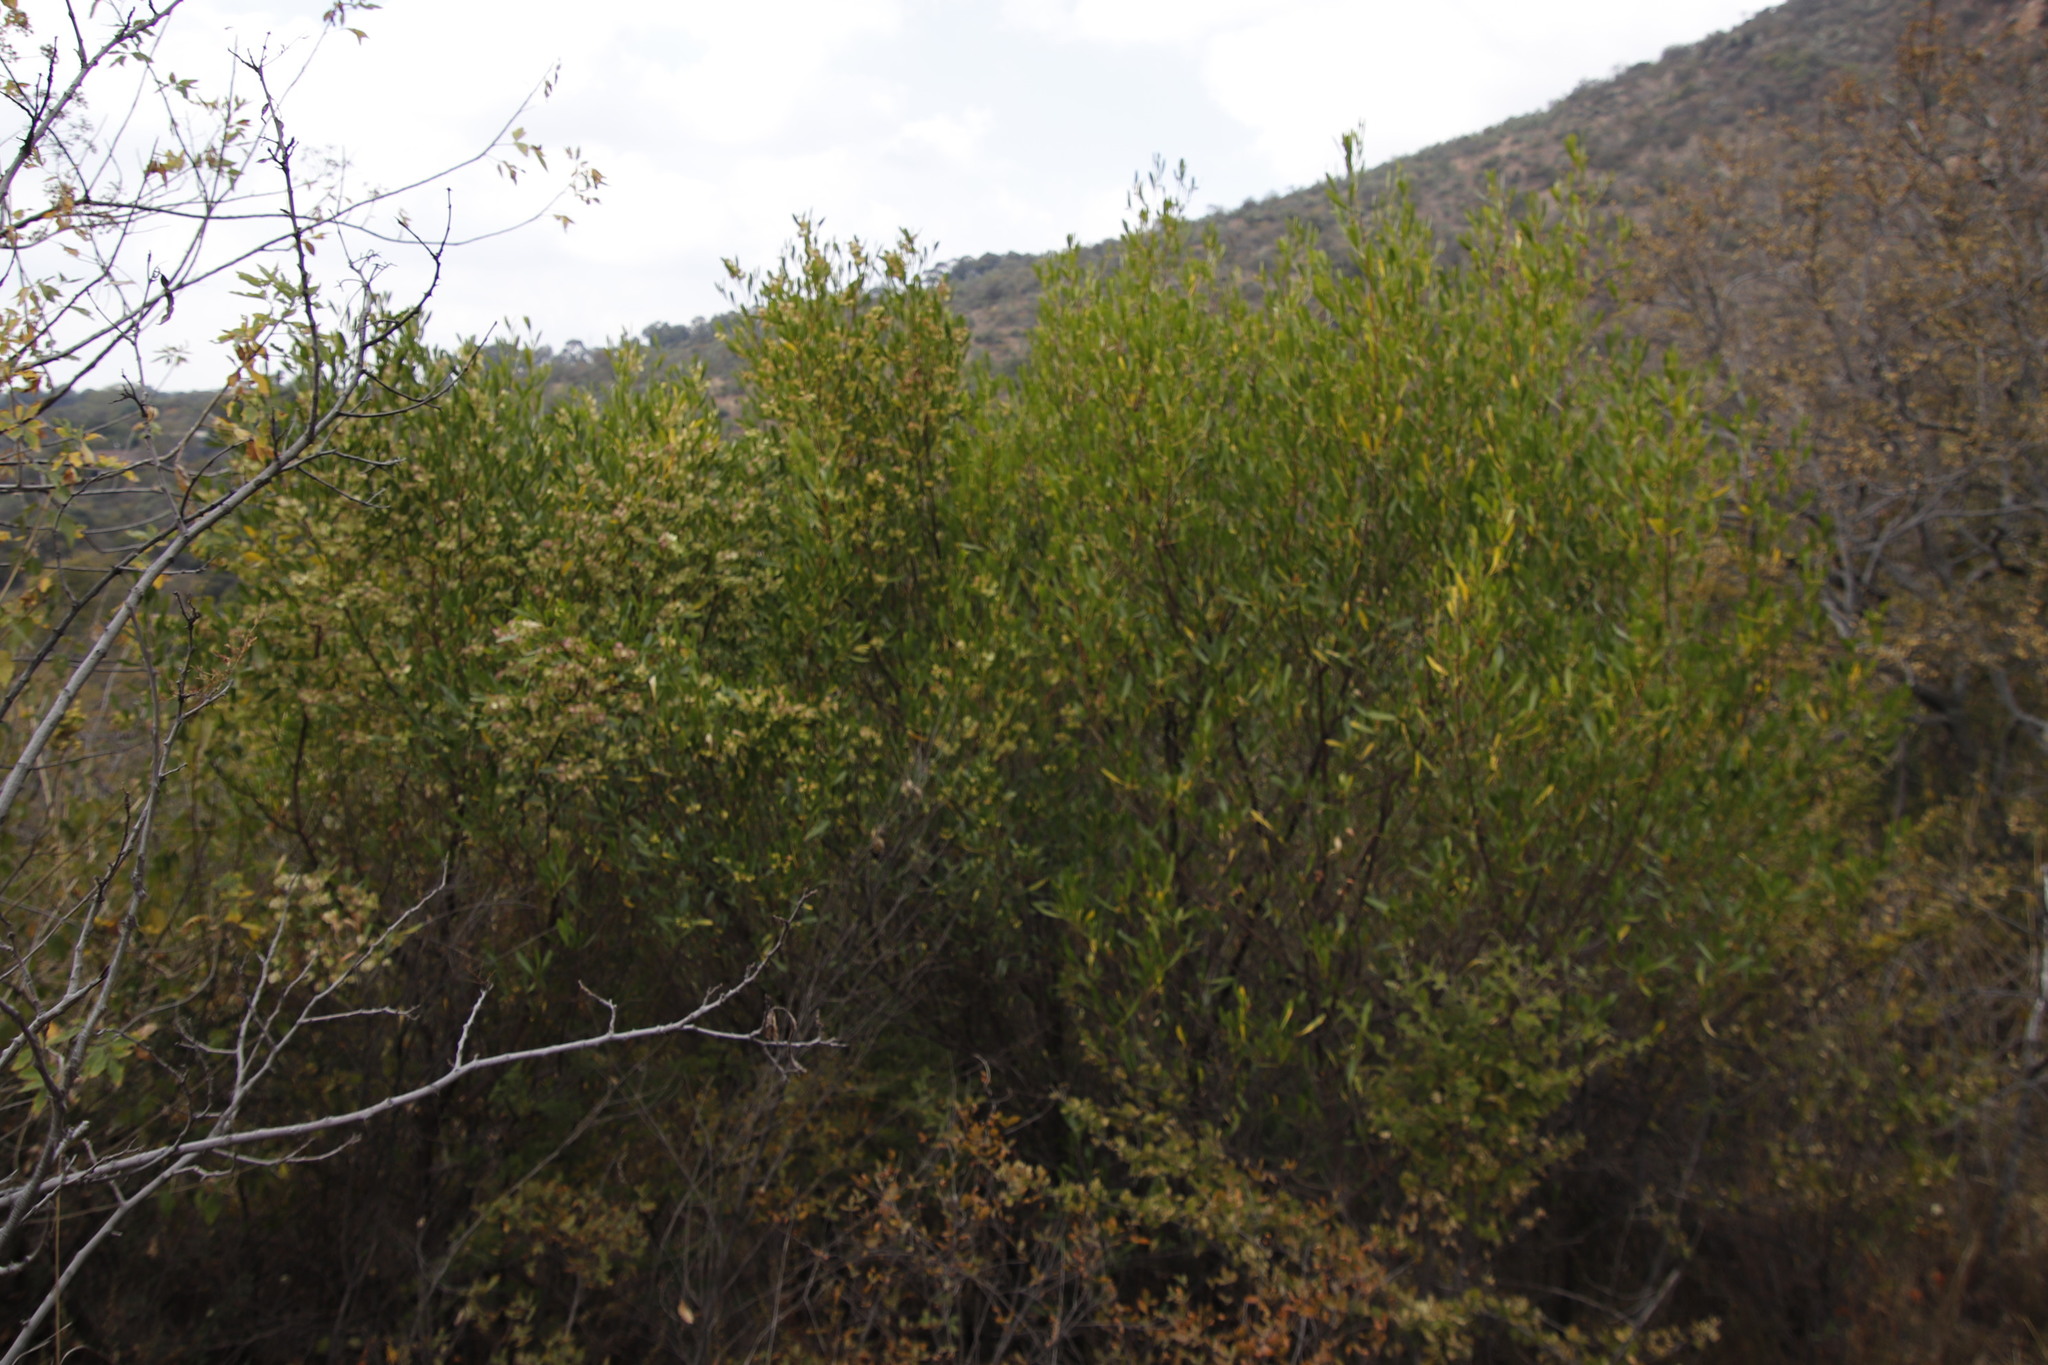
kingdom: Plantae
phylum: Tracheophyta
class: Magnoliopsida
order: Sapindales
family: Sapindaceae
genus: Dodonaea
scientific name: Dodonaea viscosa
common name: Hopbush
